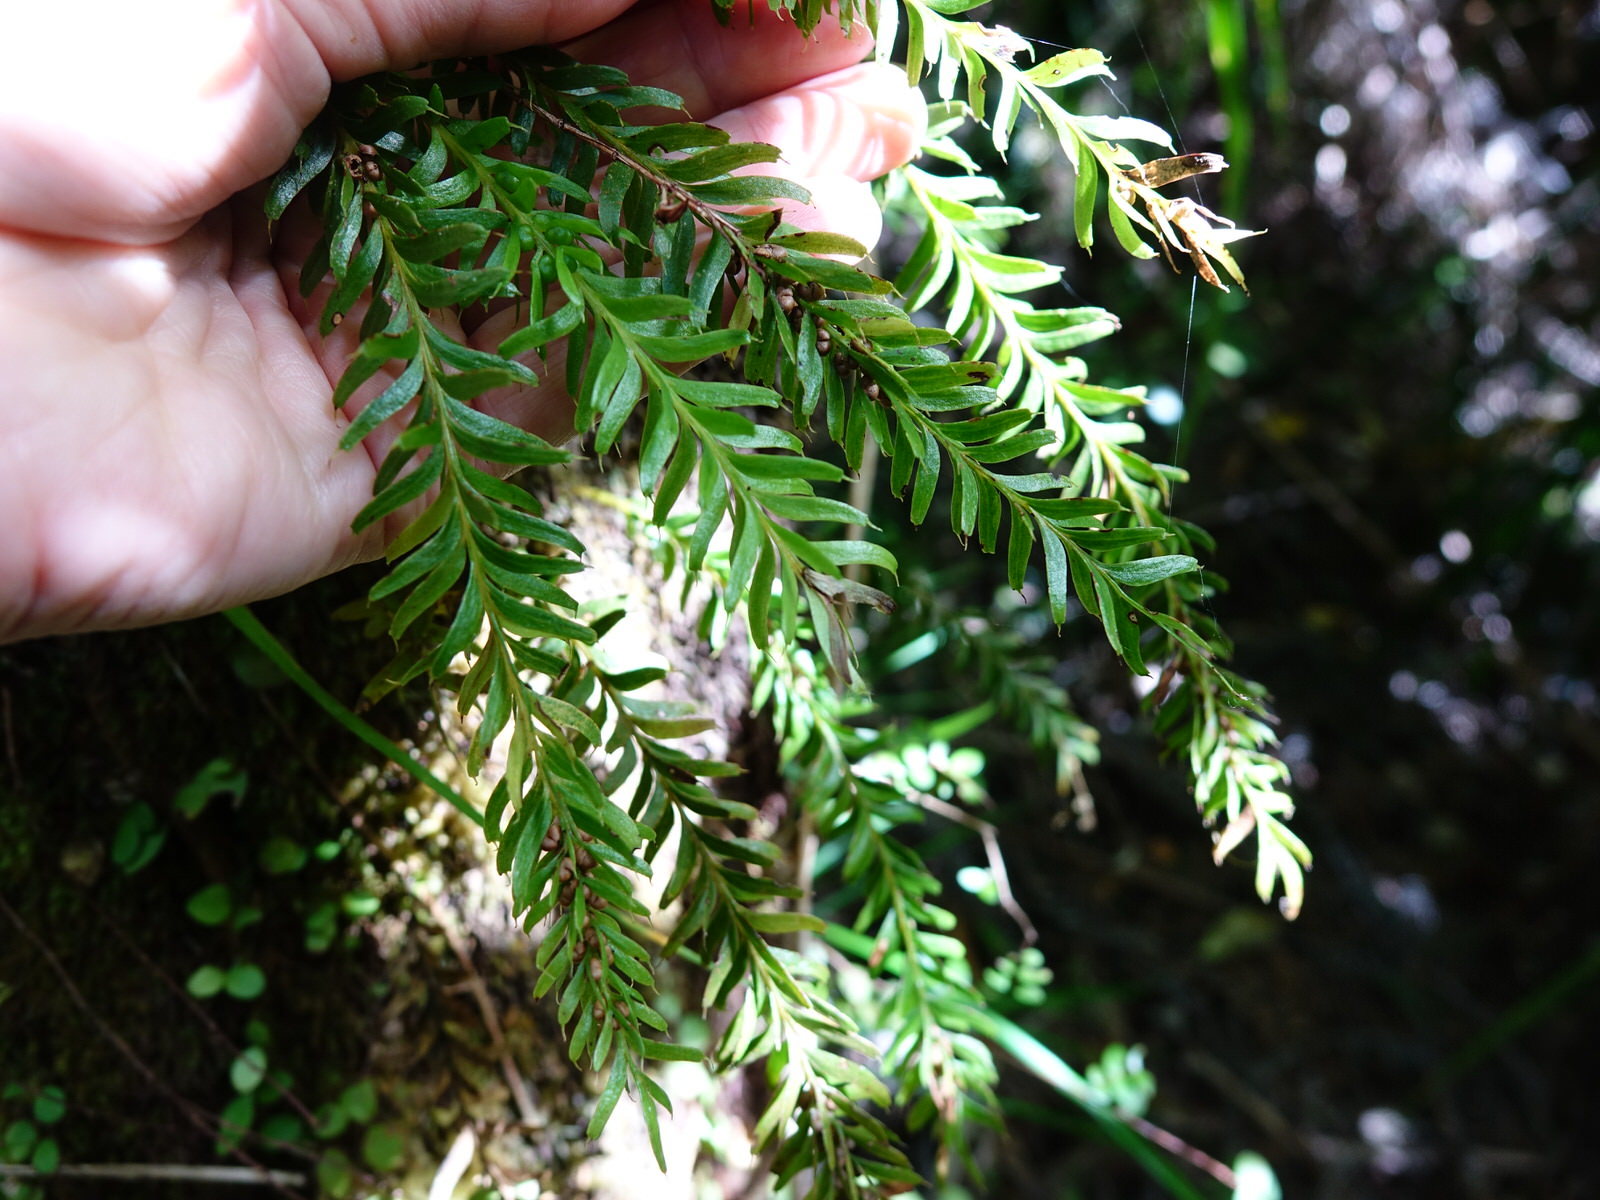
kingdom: Plantae
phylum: Tracheophyta
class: Polypodiopsida
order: Psilotales
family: Psilotaceae
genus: Tmesipteris
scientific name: Tmesipteris sigmatifolia
